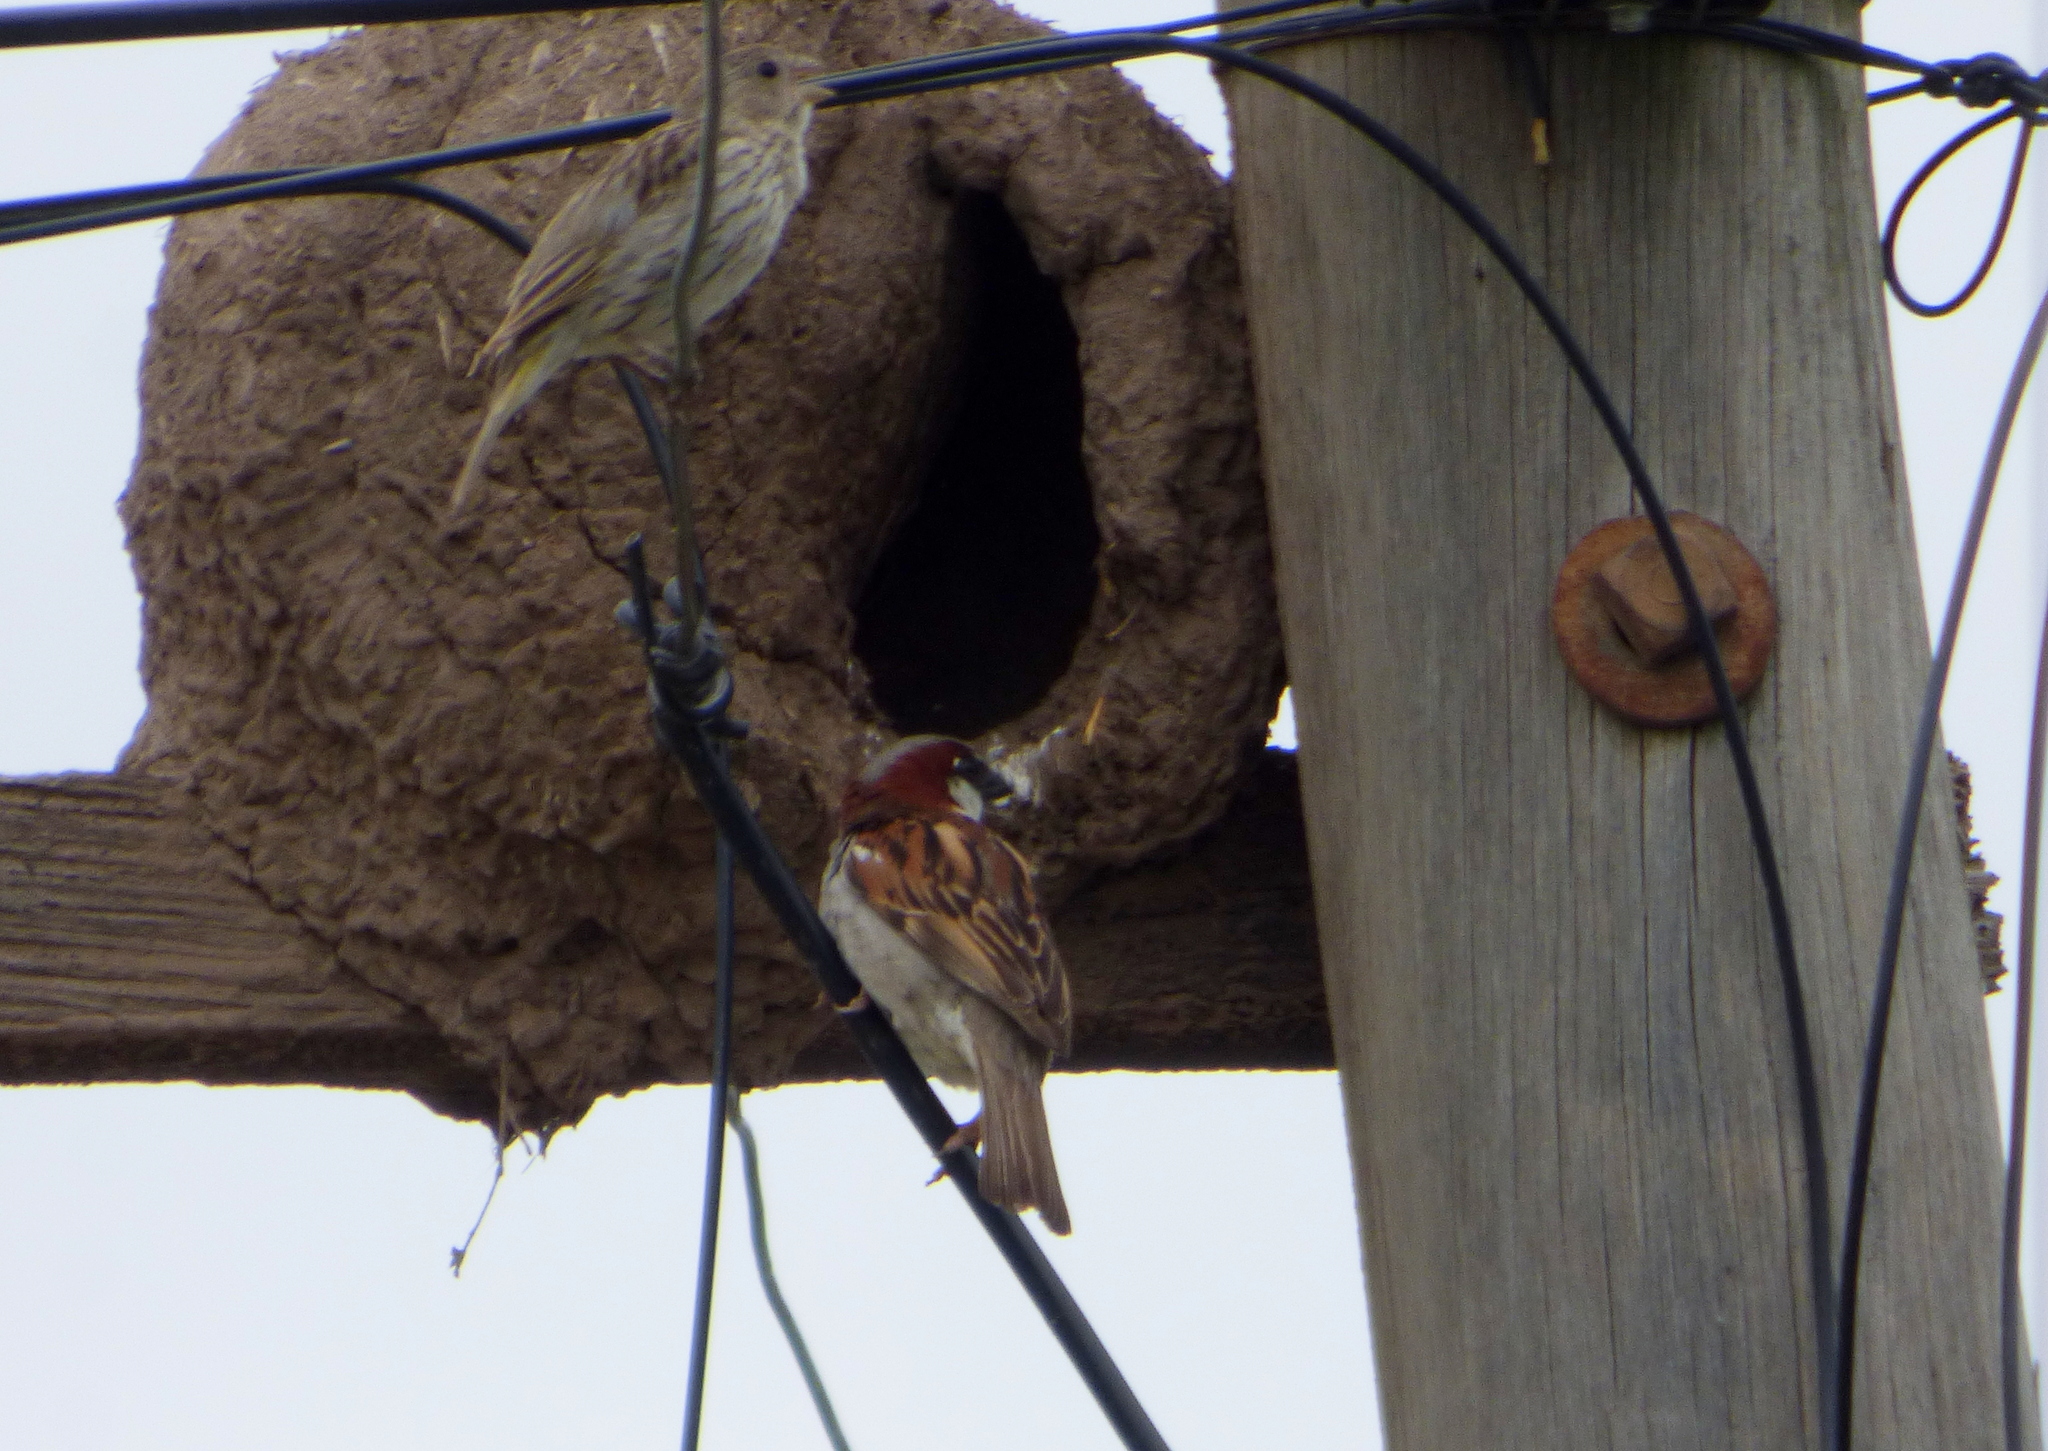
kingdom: Animalia
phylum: Chordata
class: Aves
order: Passeriformes
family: Passeridae
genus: Passer
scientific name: Passer domesticus
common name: House sparrow
